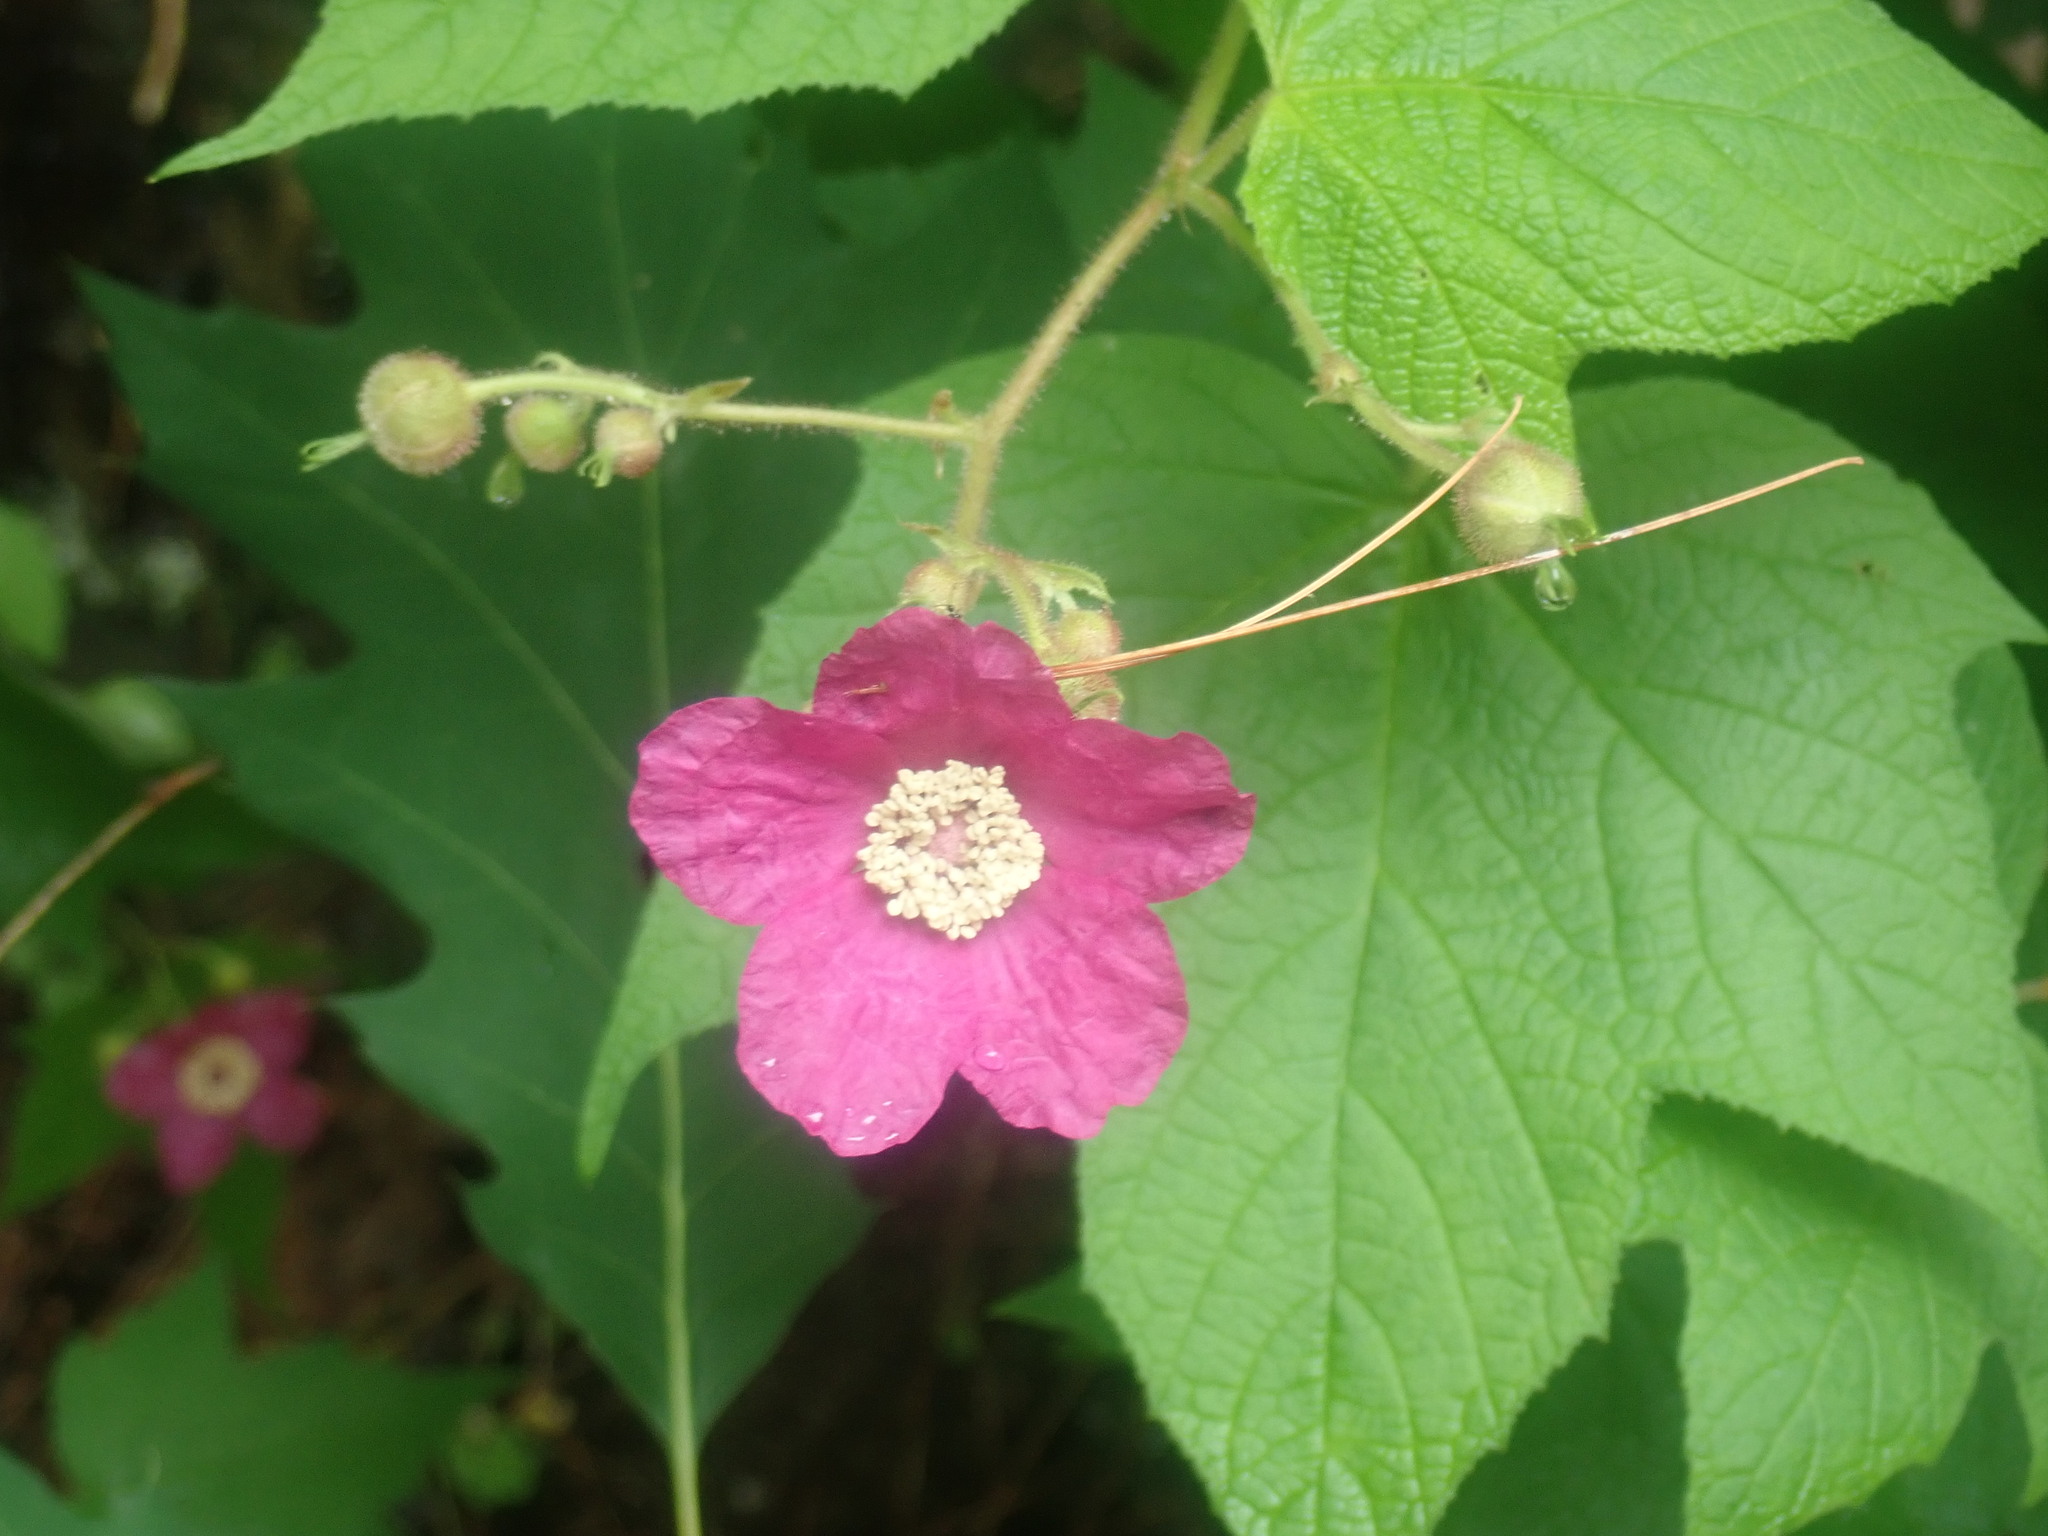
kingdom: Plantae
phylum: Tracheophyta
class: Magnoliopsida
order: Rosales
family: Rosaceae
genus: Rubus
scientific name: Rubus odoratus
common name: Purple-flowered raspberry
